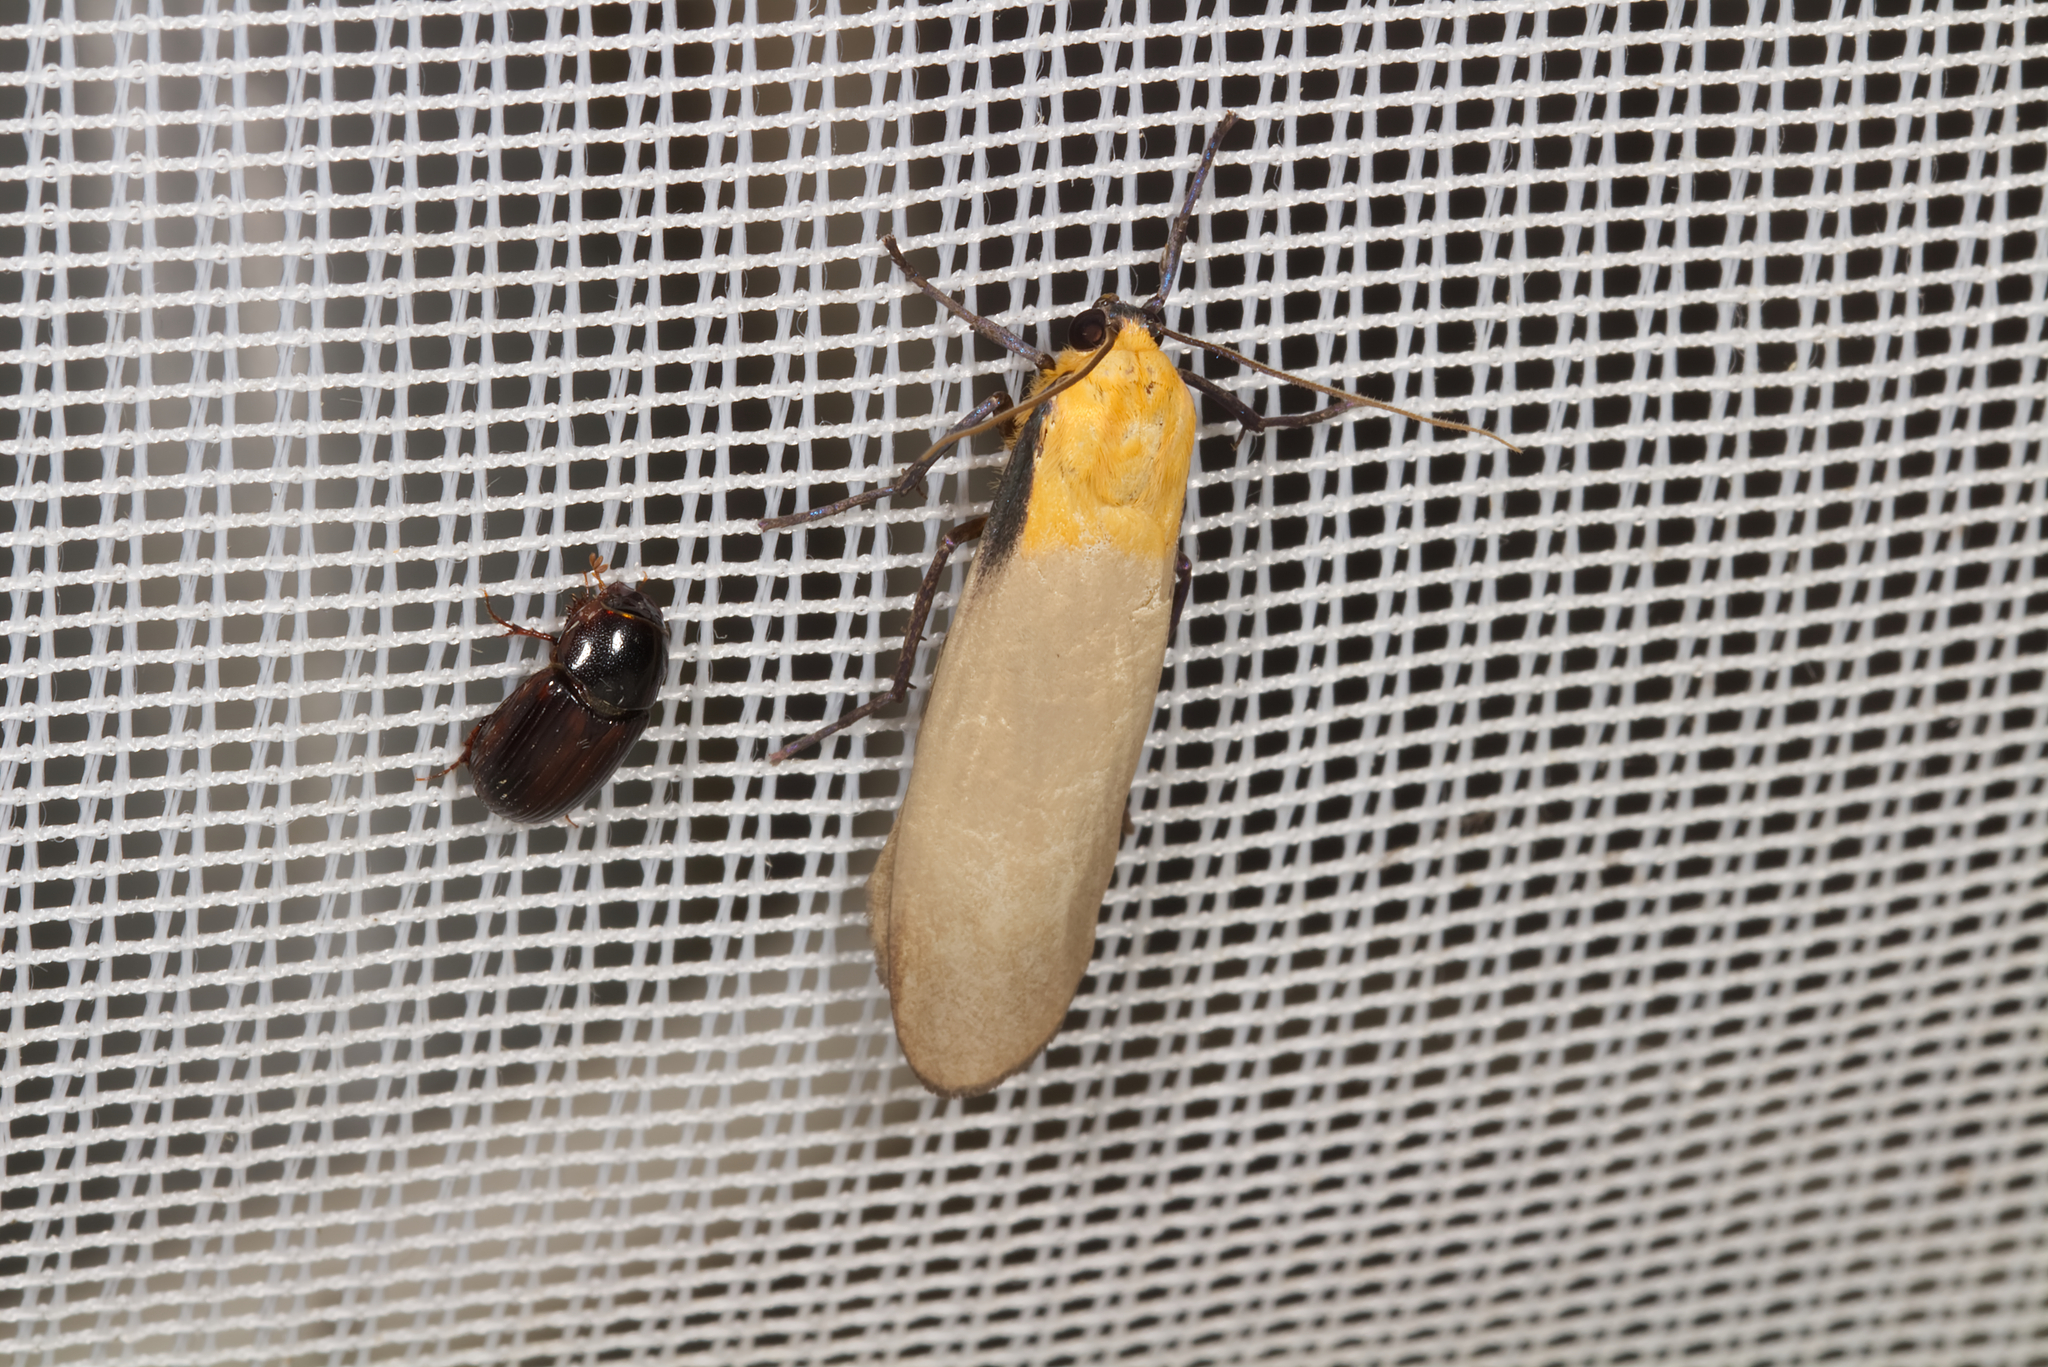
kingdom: Animalia
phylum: Arthropoda
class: Insecta
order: Lepidoptera
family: Erebidae
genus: Lithosia
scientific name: Lithosia quadra
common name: Four-spotted footman
